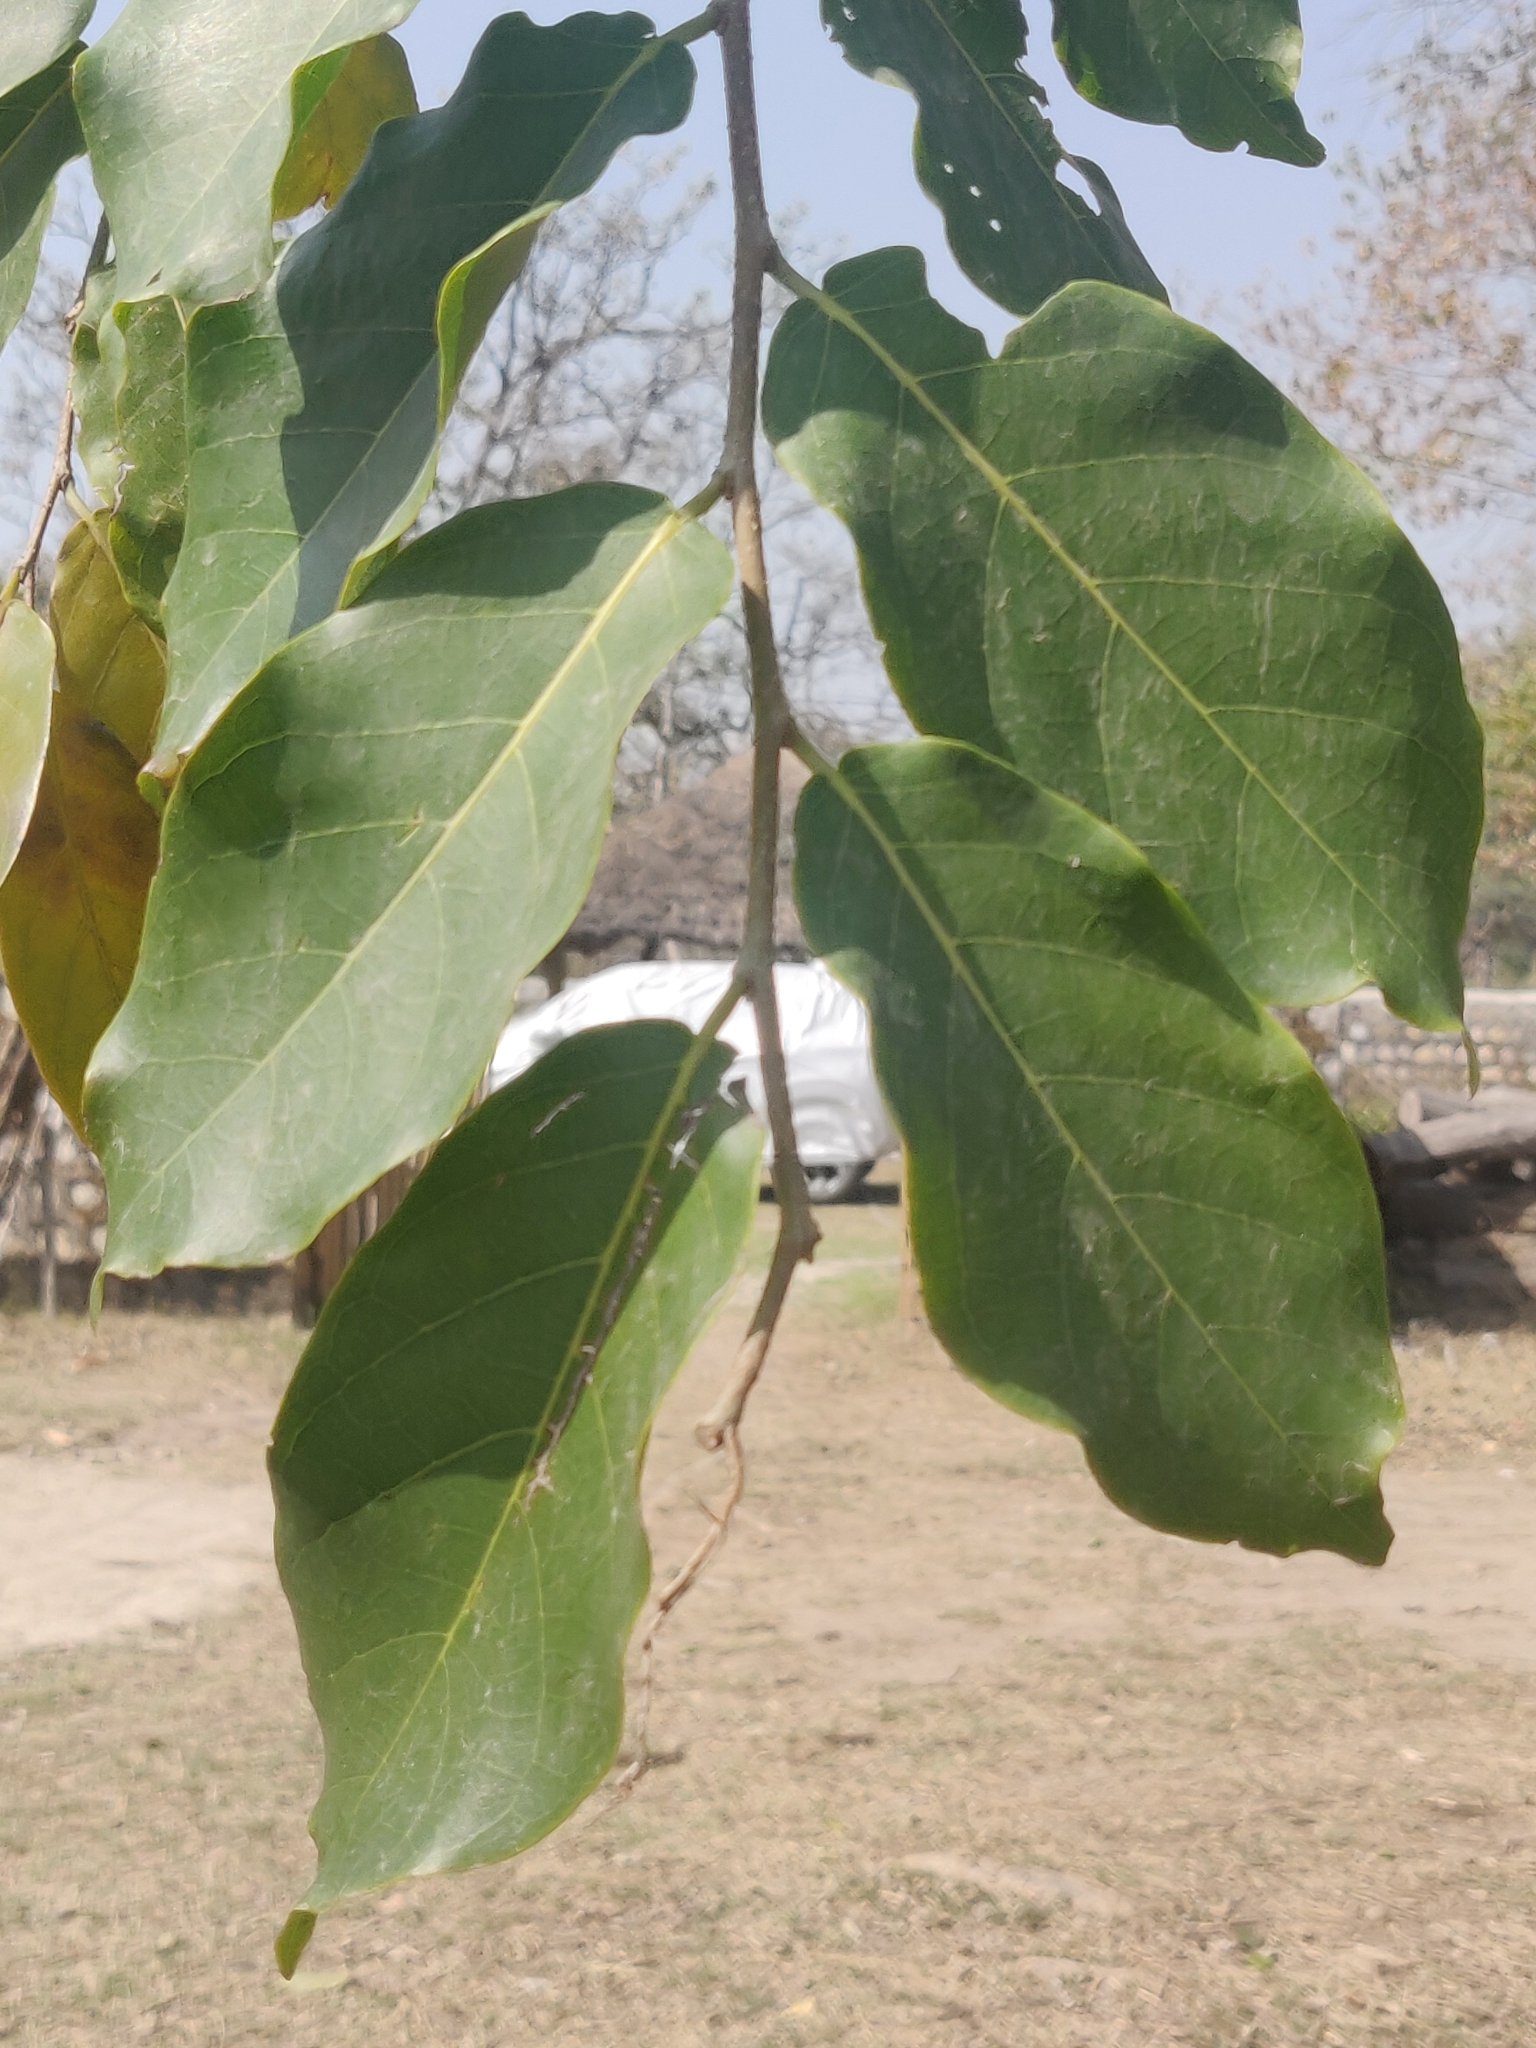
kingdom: Plantae
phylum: Tracheophyta
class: Magnoliopsida
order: Rosales
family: Ulmaceae
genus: Holoptelea
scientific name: Holoptelea integrifolia
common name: Indian-elm
